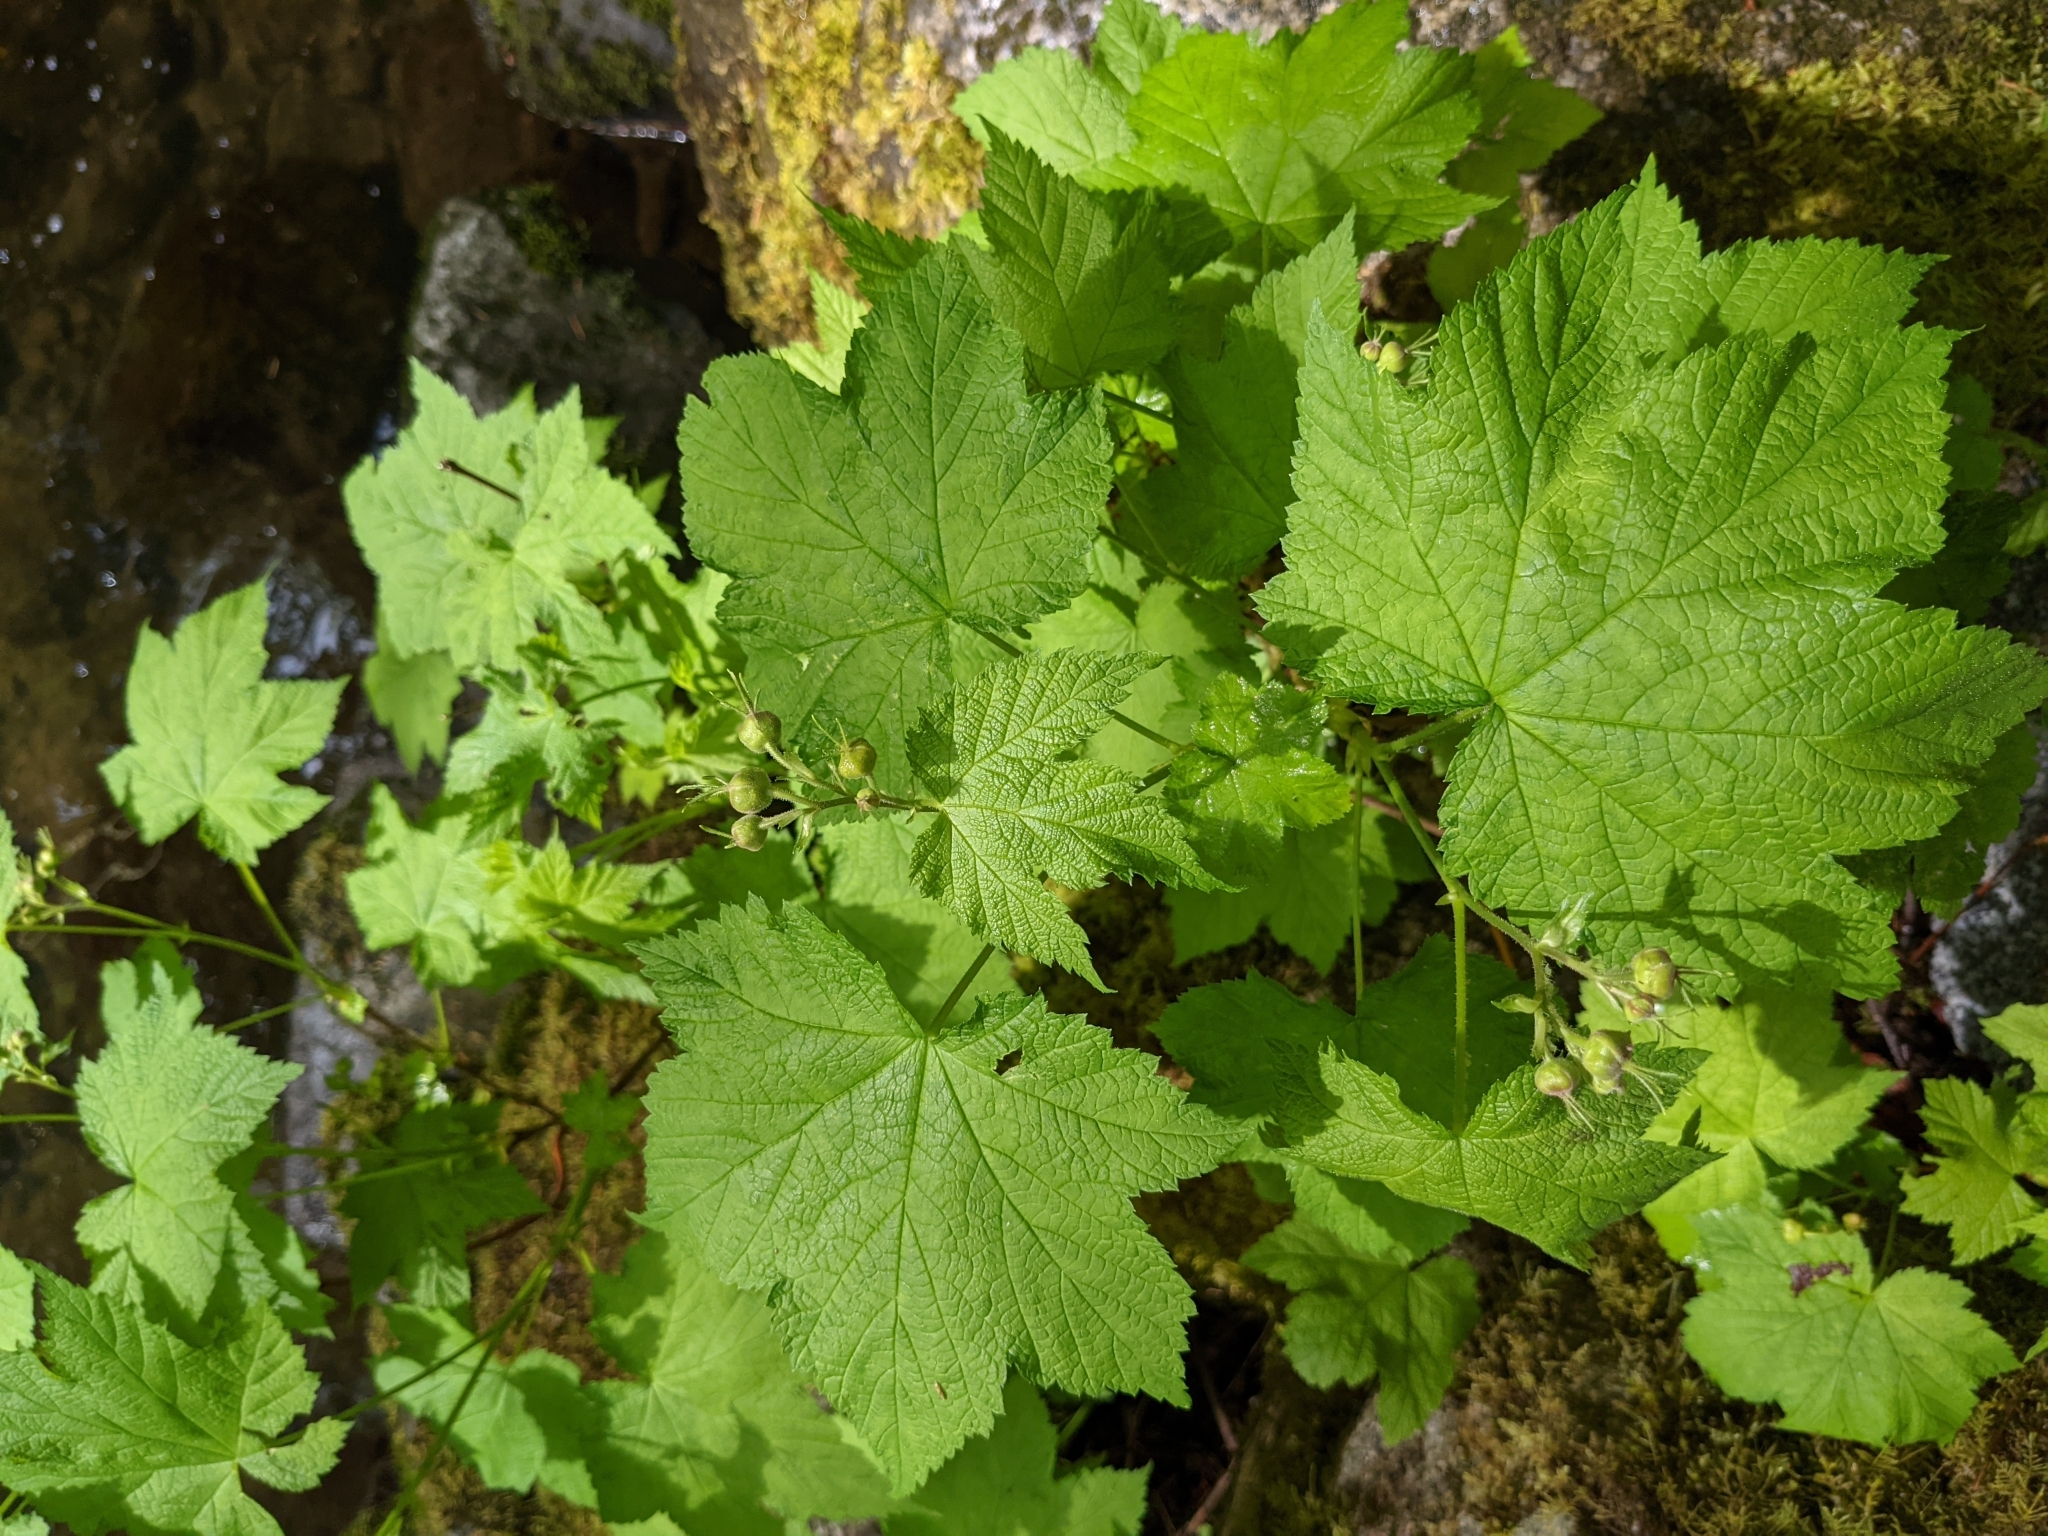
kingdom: Plantae
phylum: Tracheophyta
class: Magnoliopsida
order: Rosales
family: Rosaceae
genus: Rubus
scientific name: Rubus parviflorus
